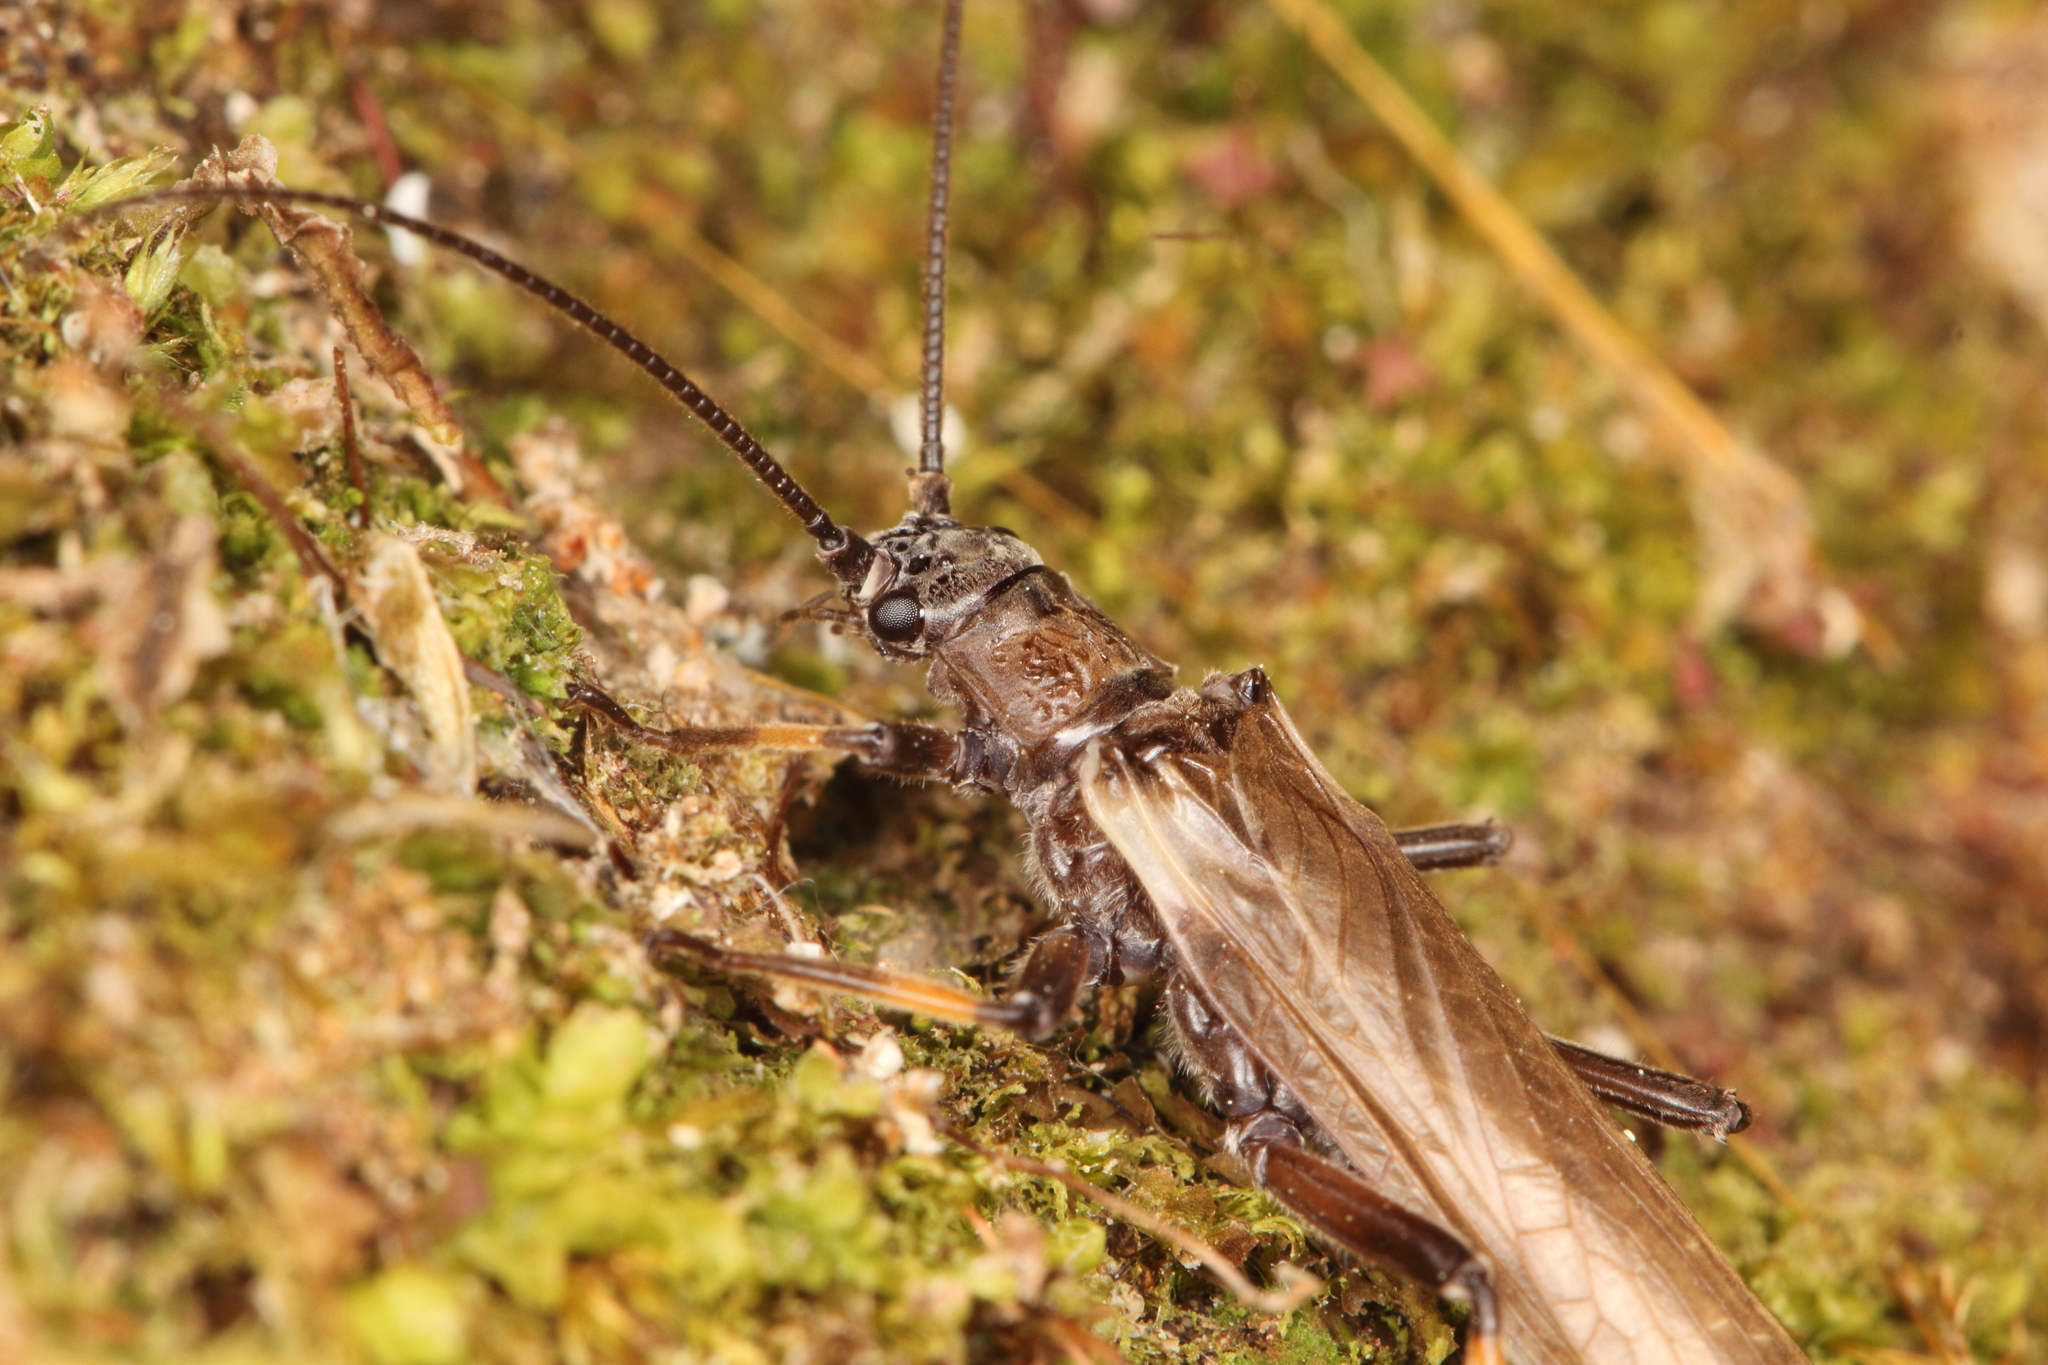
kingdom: Animalia
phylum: Arthropoda
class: Insecta
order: Plecoptera
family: Austroperlidae
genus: Austroperla
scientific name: Austroperla cyrene
